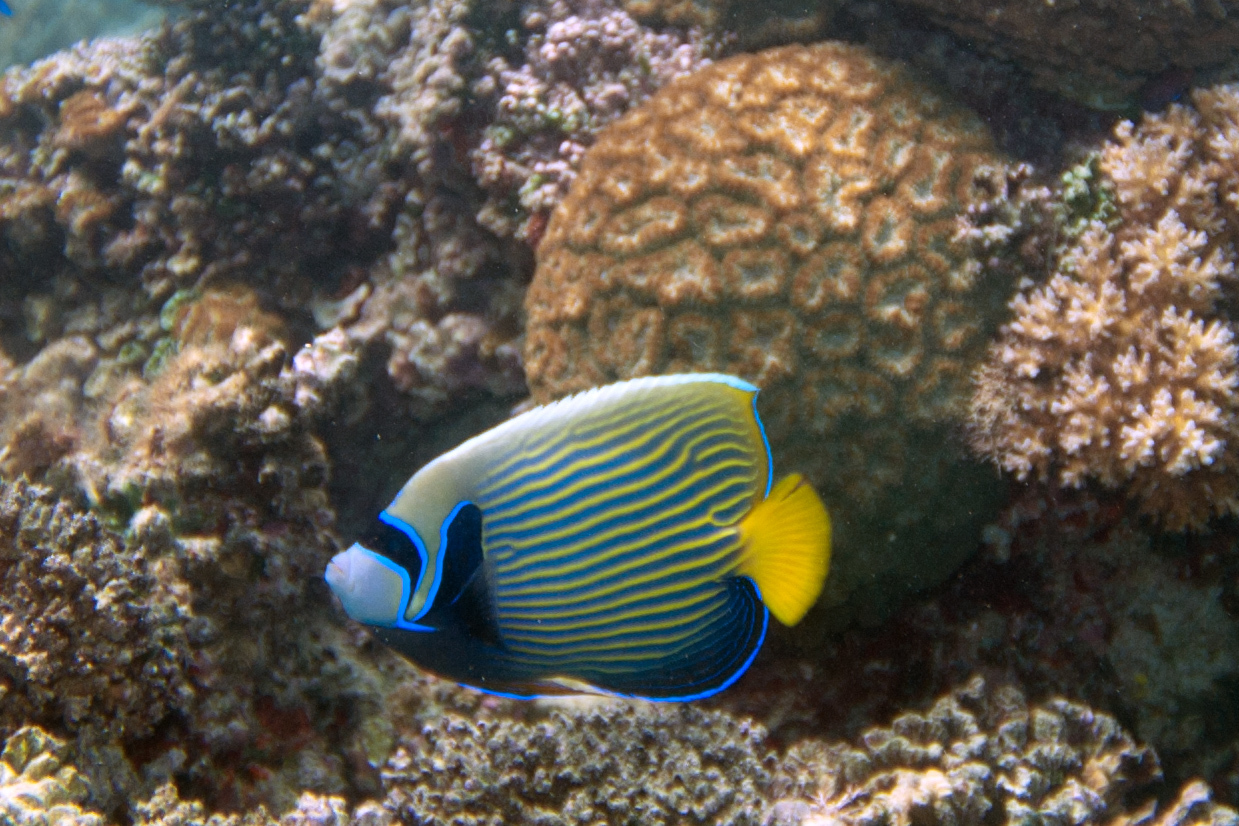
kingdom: Animalia
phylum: Chordata
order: Perciformes
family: Pomacanthidae
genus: Pomacanthus
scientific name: Pomacanthus imperator
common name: Emperor angelfish
